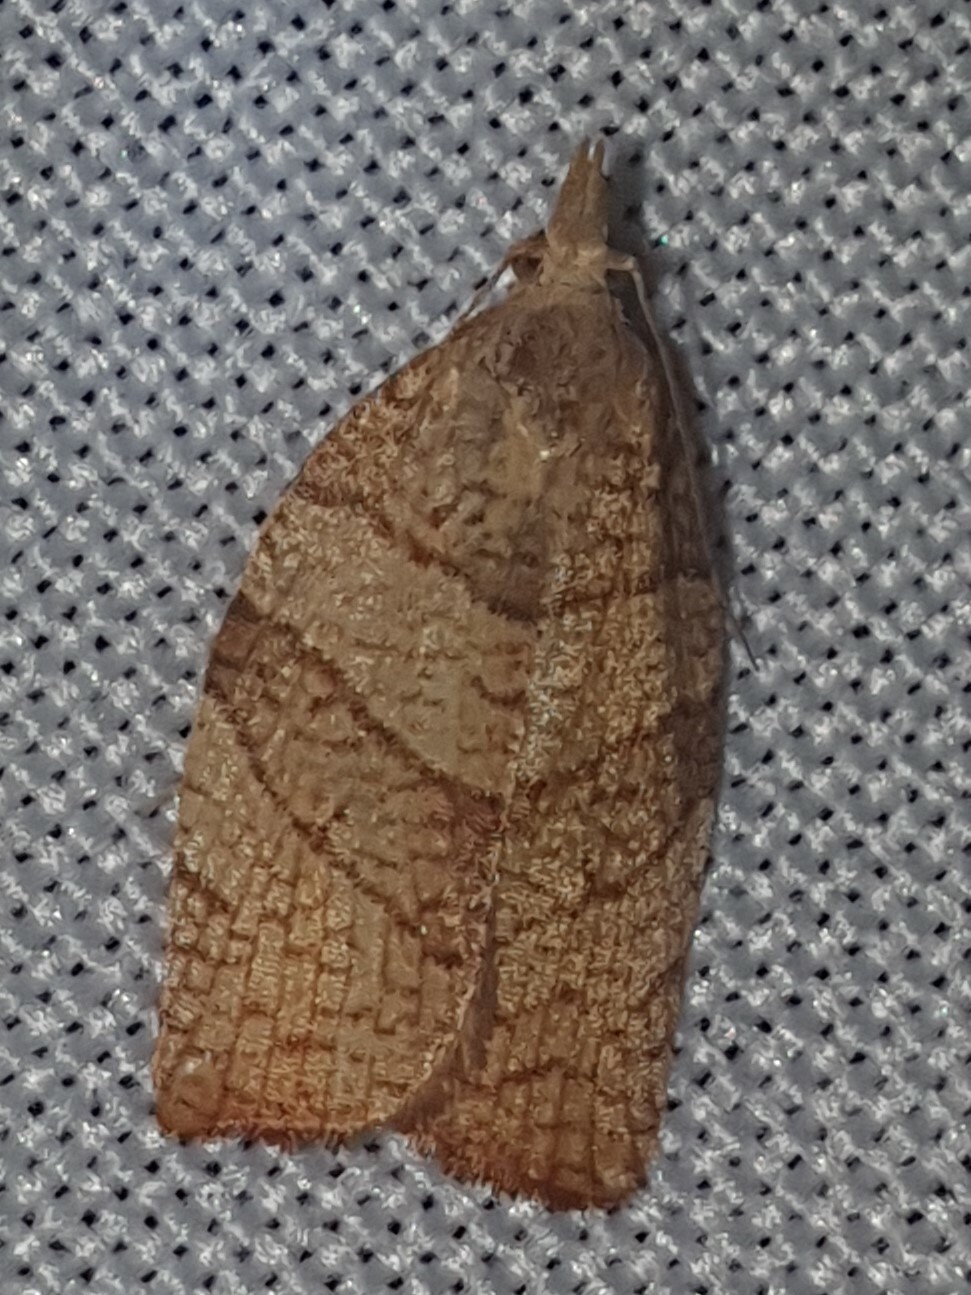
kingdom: Animalia
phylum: Arthropoda
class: Insecta
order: Lepidoptera
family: Tortricidae
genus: Pandemis
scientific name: Pandemis corylana
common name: Chequered fruit-tree tortrix
